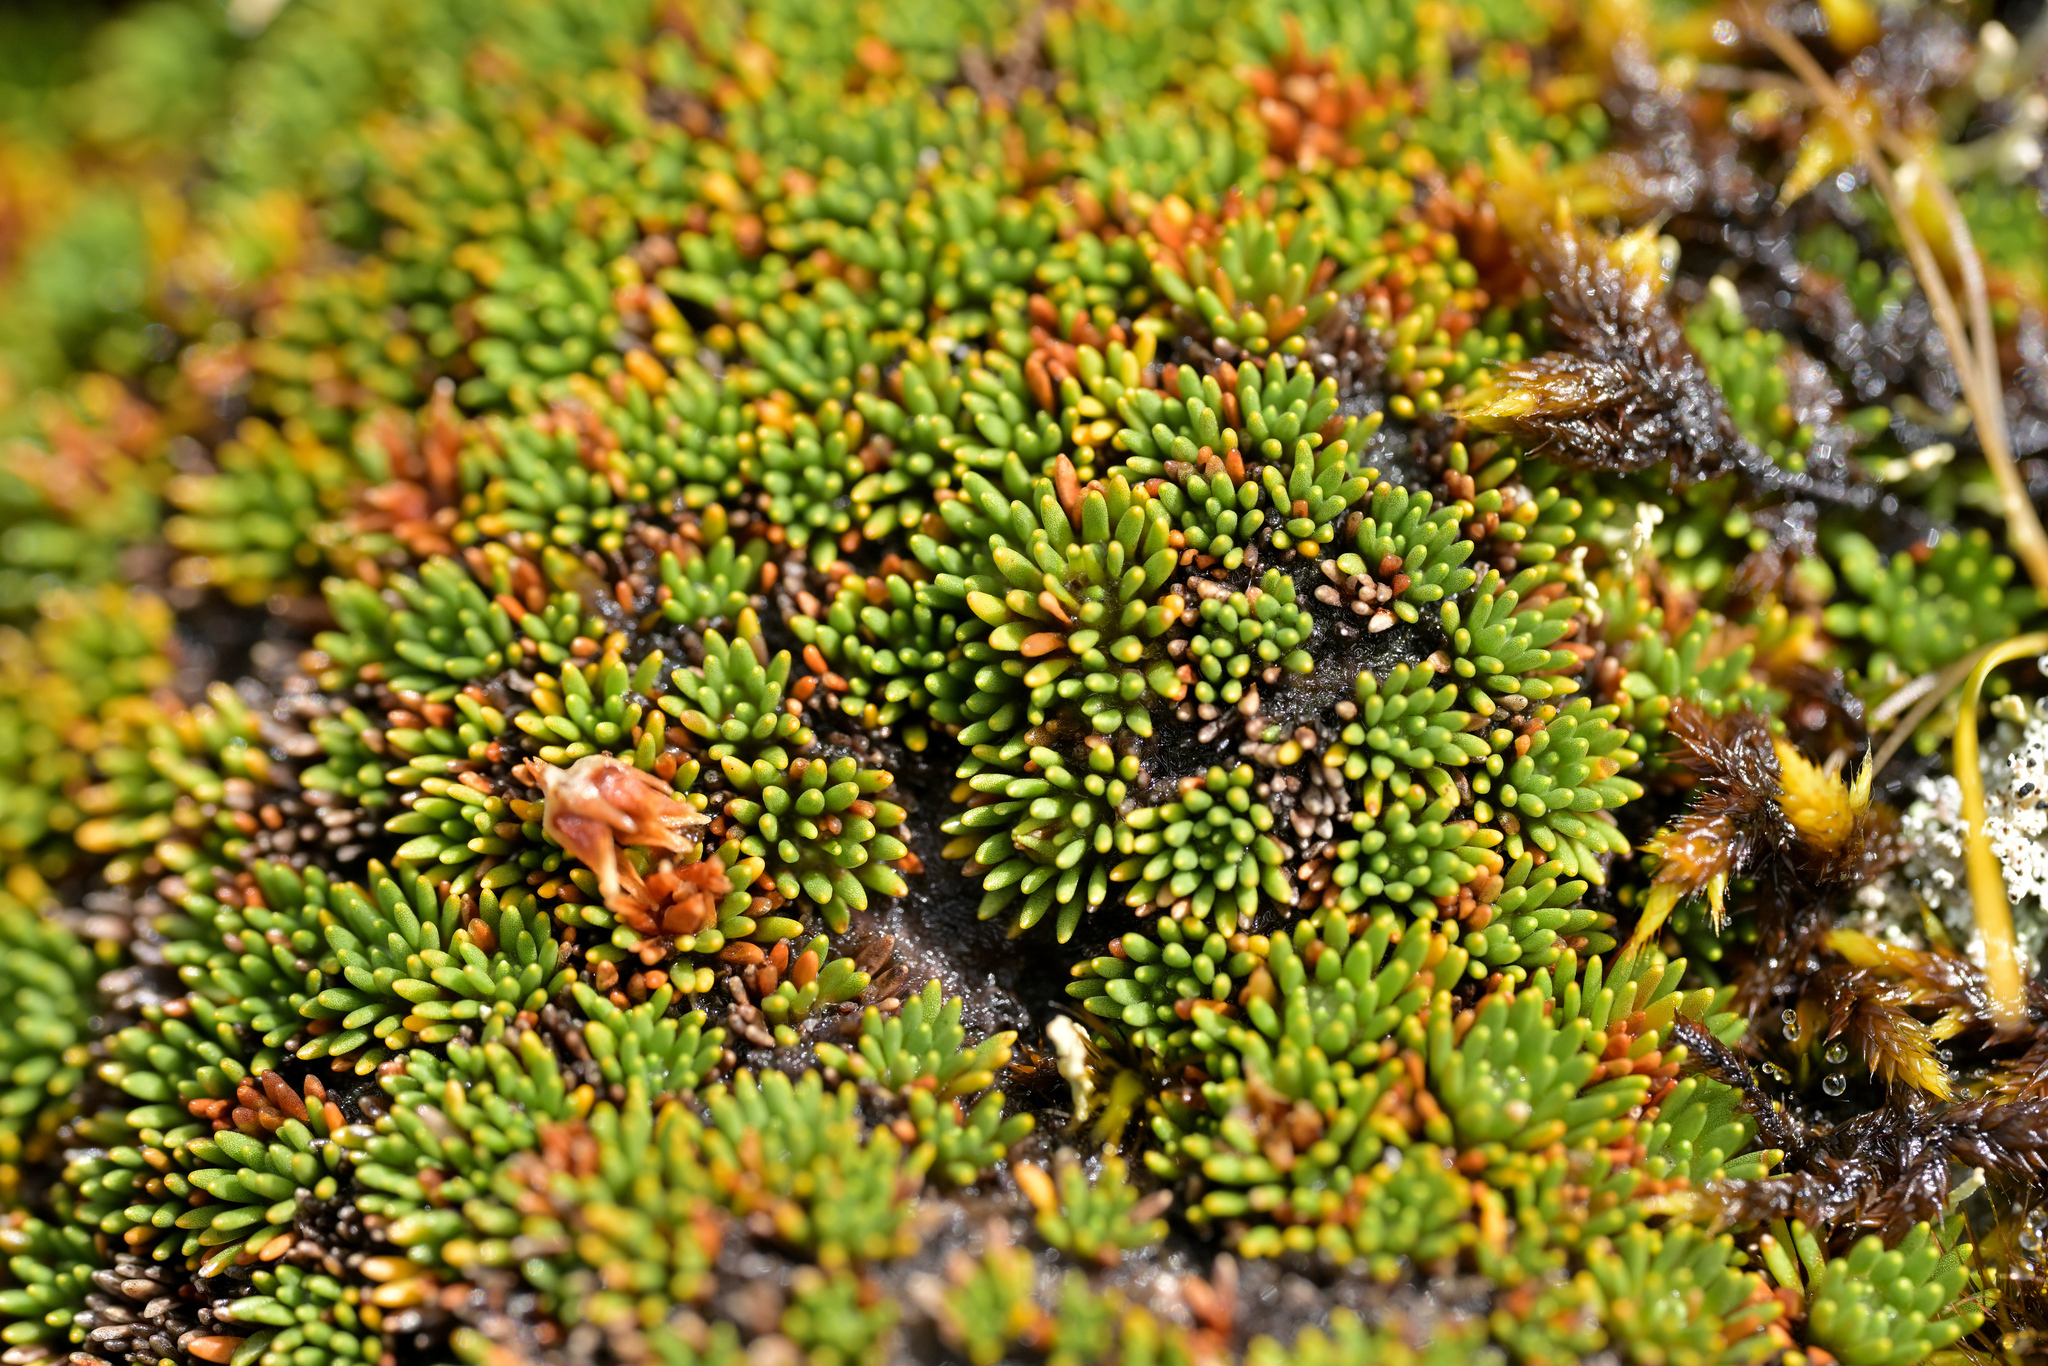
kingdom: Plantae
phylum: Tracheophyta
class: Magnoliopsida
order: Asterales
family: Stylidiaceae
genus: Donatia
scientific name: Donatia novae-zelandiae
